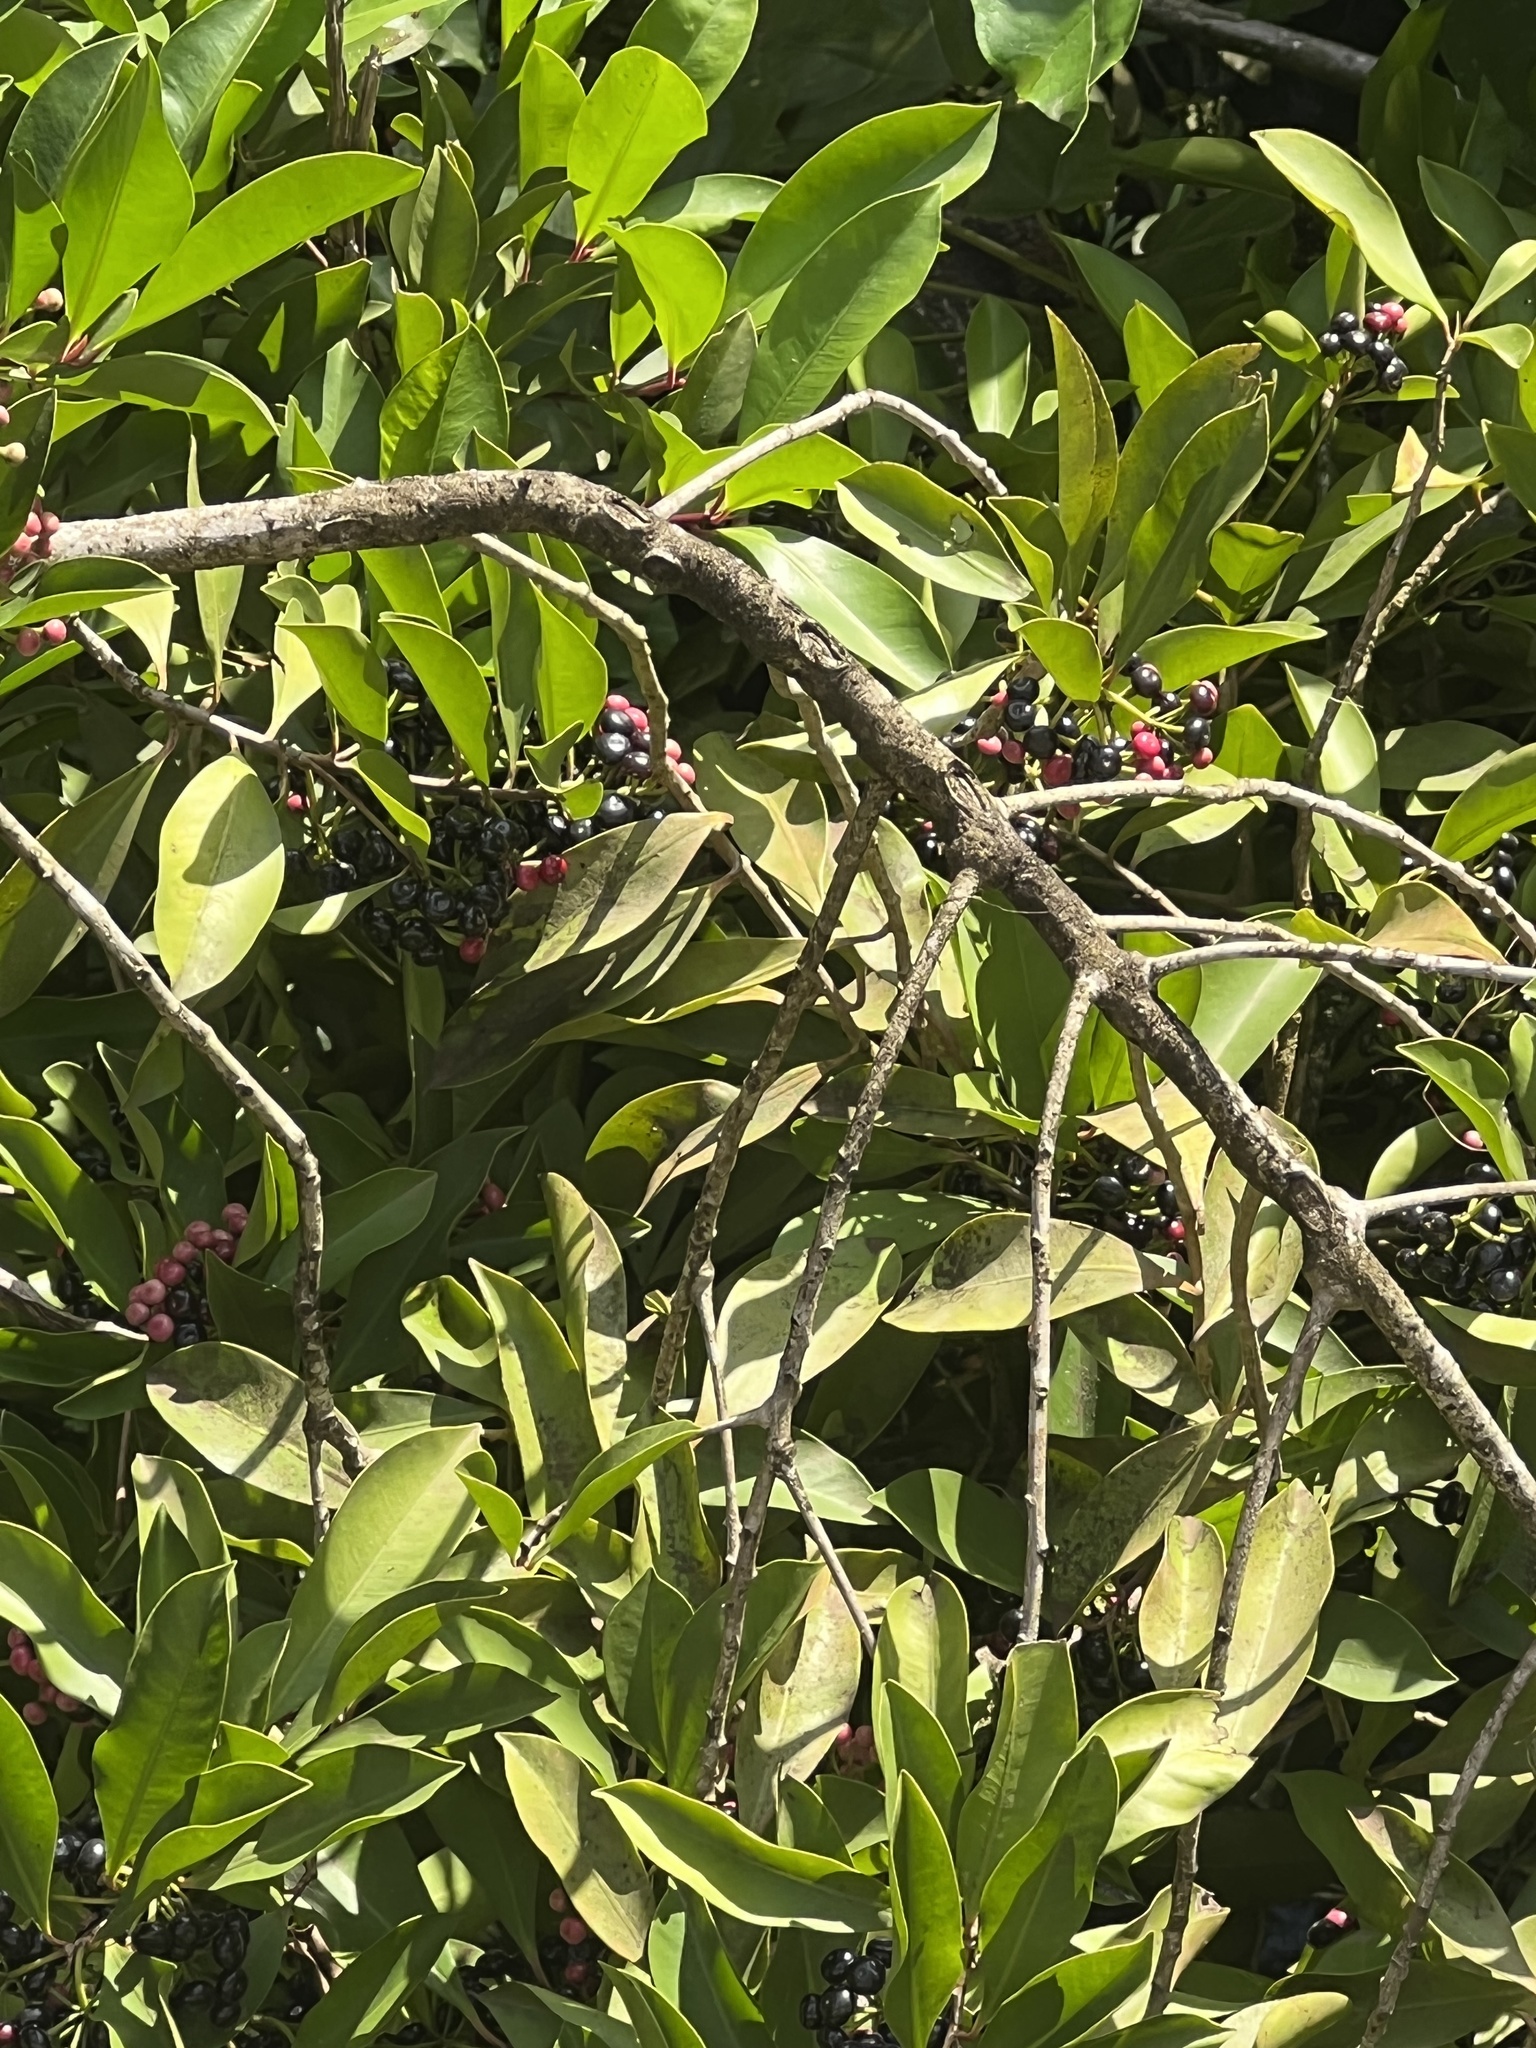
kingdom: Plantae
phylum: Tracheophyta
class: Magnoliopsida
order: Ericales
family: Primulaceae
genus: Ardisia
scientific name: Ardisia elliptica
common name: Shoebutton
